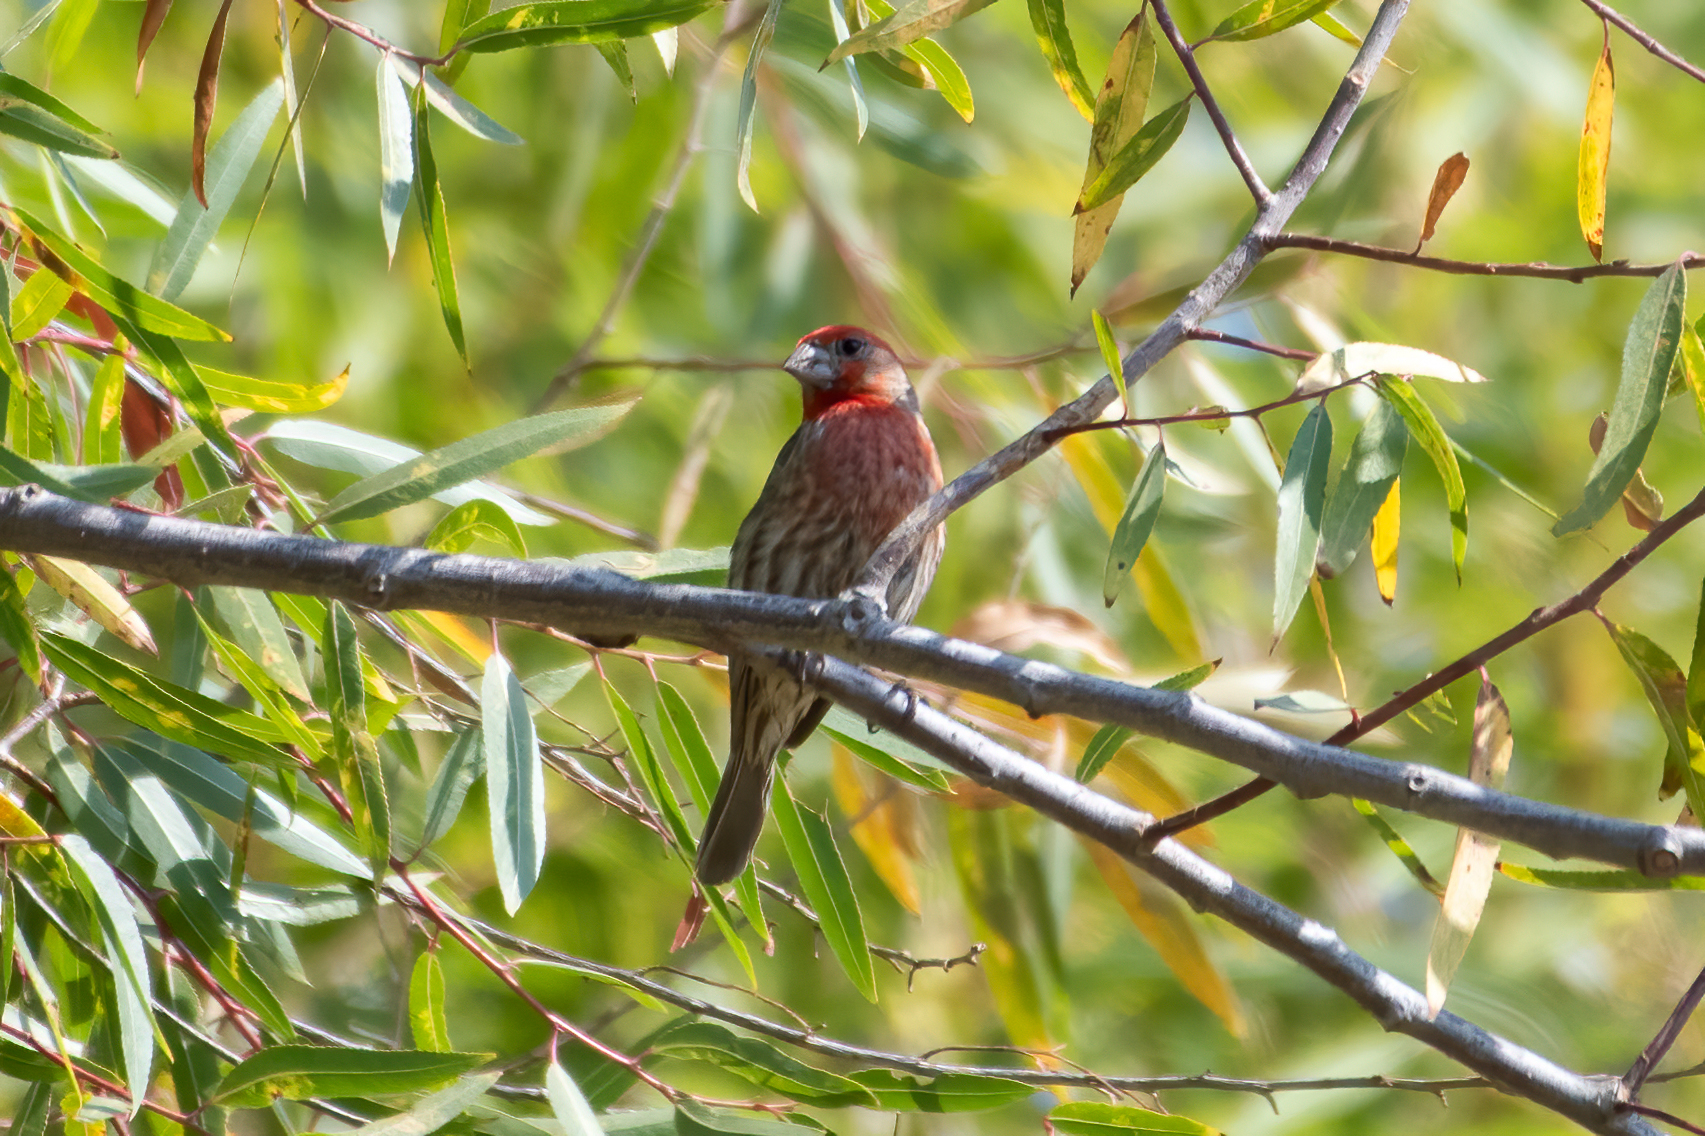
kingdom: Animalia
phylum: Chordata
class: Aves
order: Passeriformes
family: Fringillidae
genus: Haemorhous
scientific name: Haemorhous mexicanus
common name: House finch
